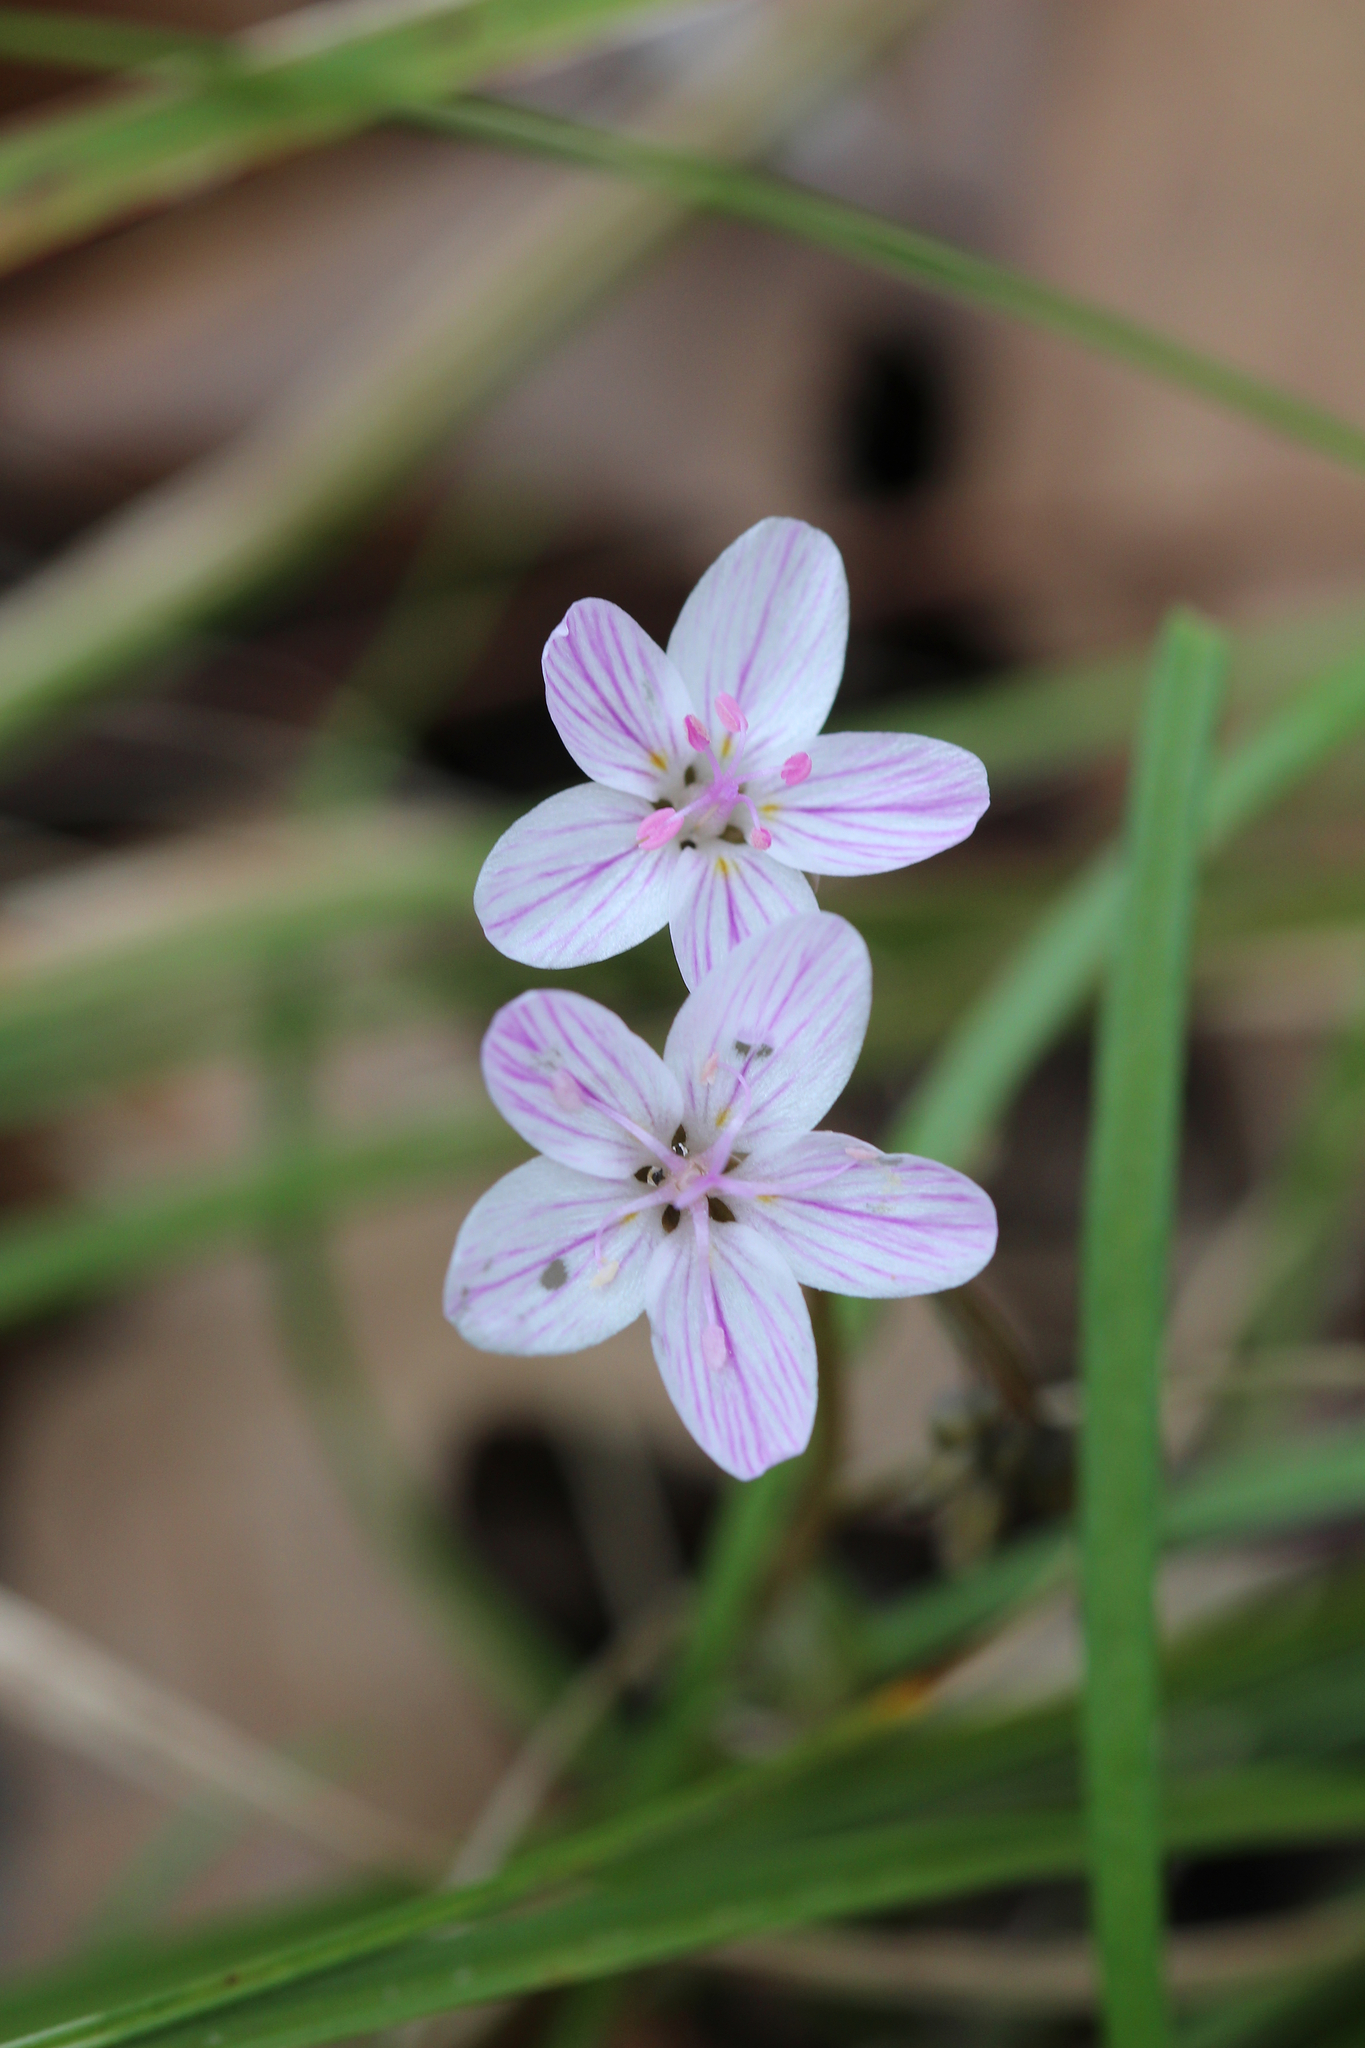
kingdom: Plantae
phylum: Tracheophyta
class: Magnoliopsida
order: Caryophyllales
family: Montiaceae
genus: Claytonia
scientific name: Claytonia virginica
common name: Virginia springbeauty
